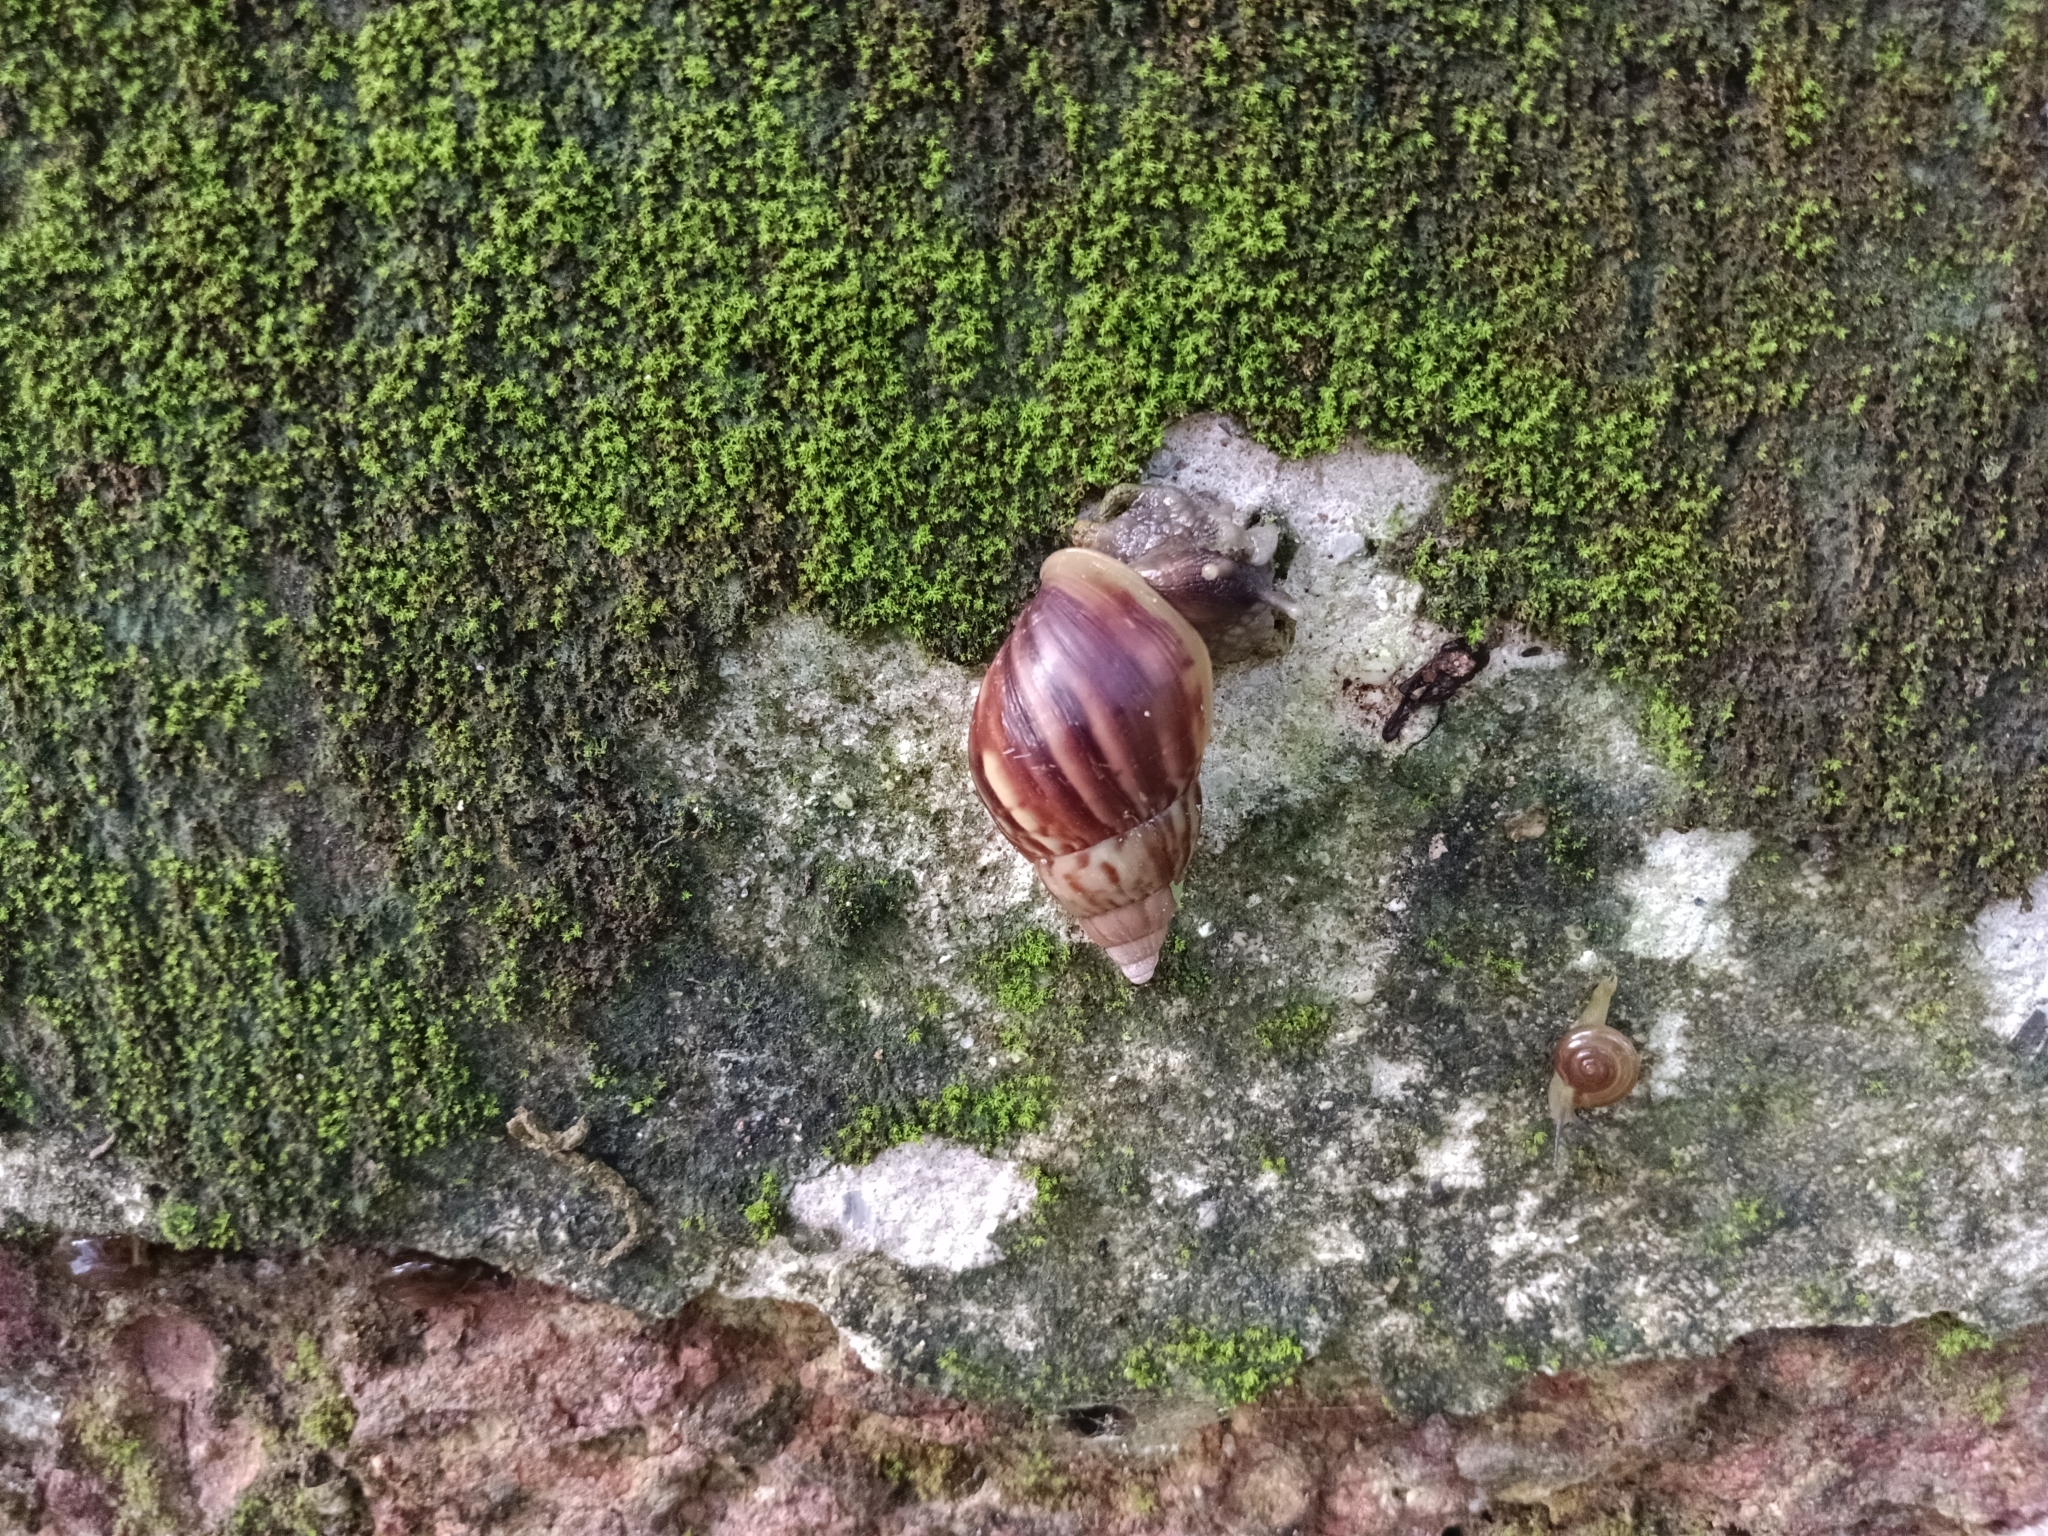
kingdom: Animalia
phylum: Mollusca
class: Gastropoda
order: Stylommatophora
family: Achatinidae
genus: Lissachatina
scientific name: Lissachatina fulica
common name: Giant african snail
